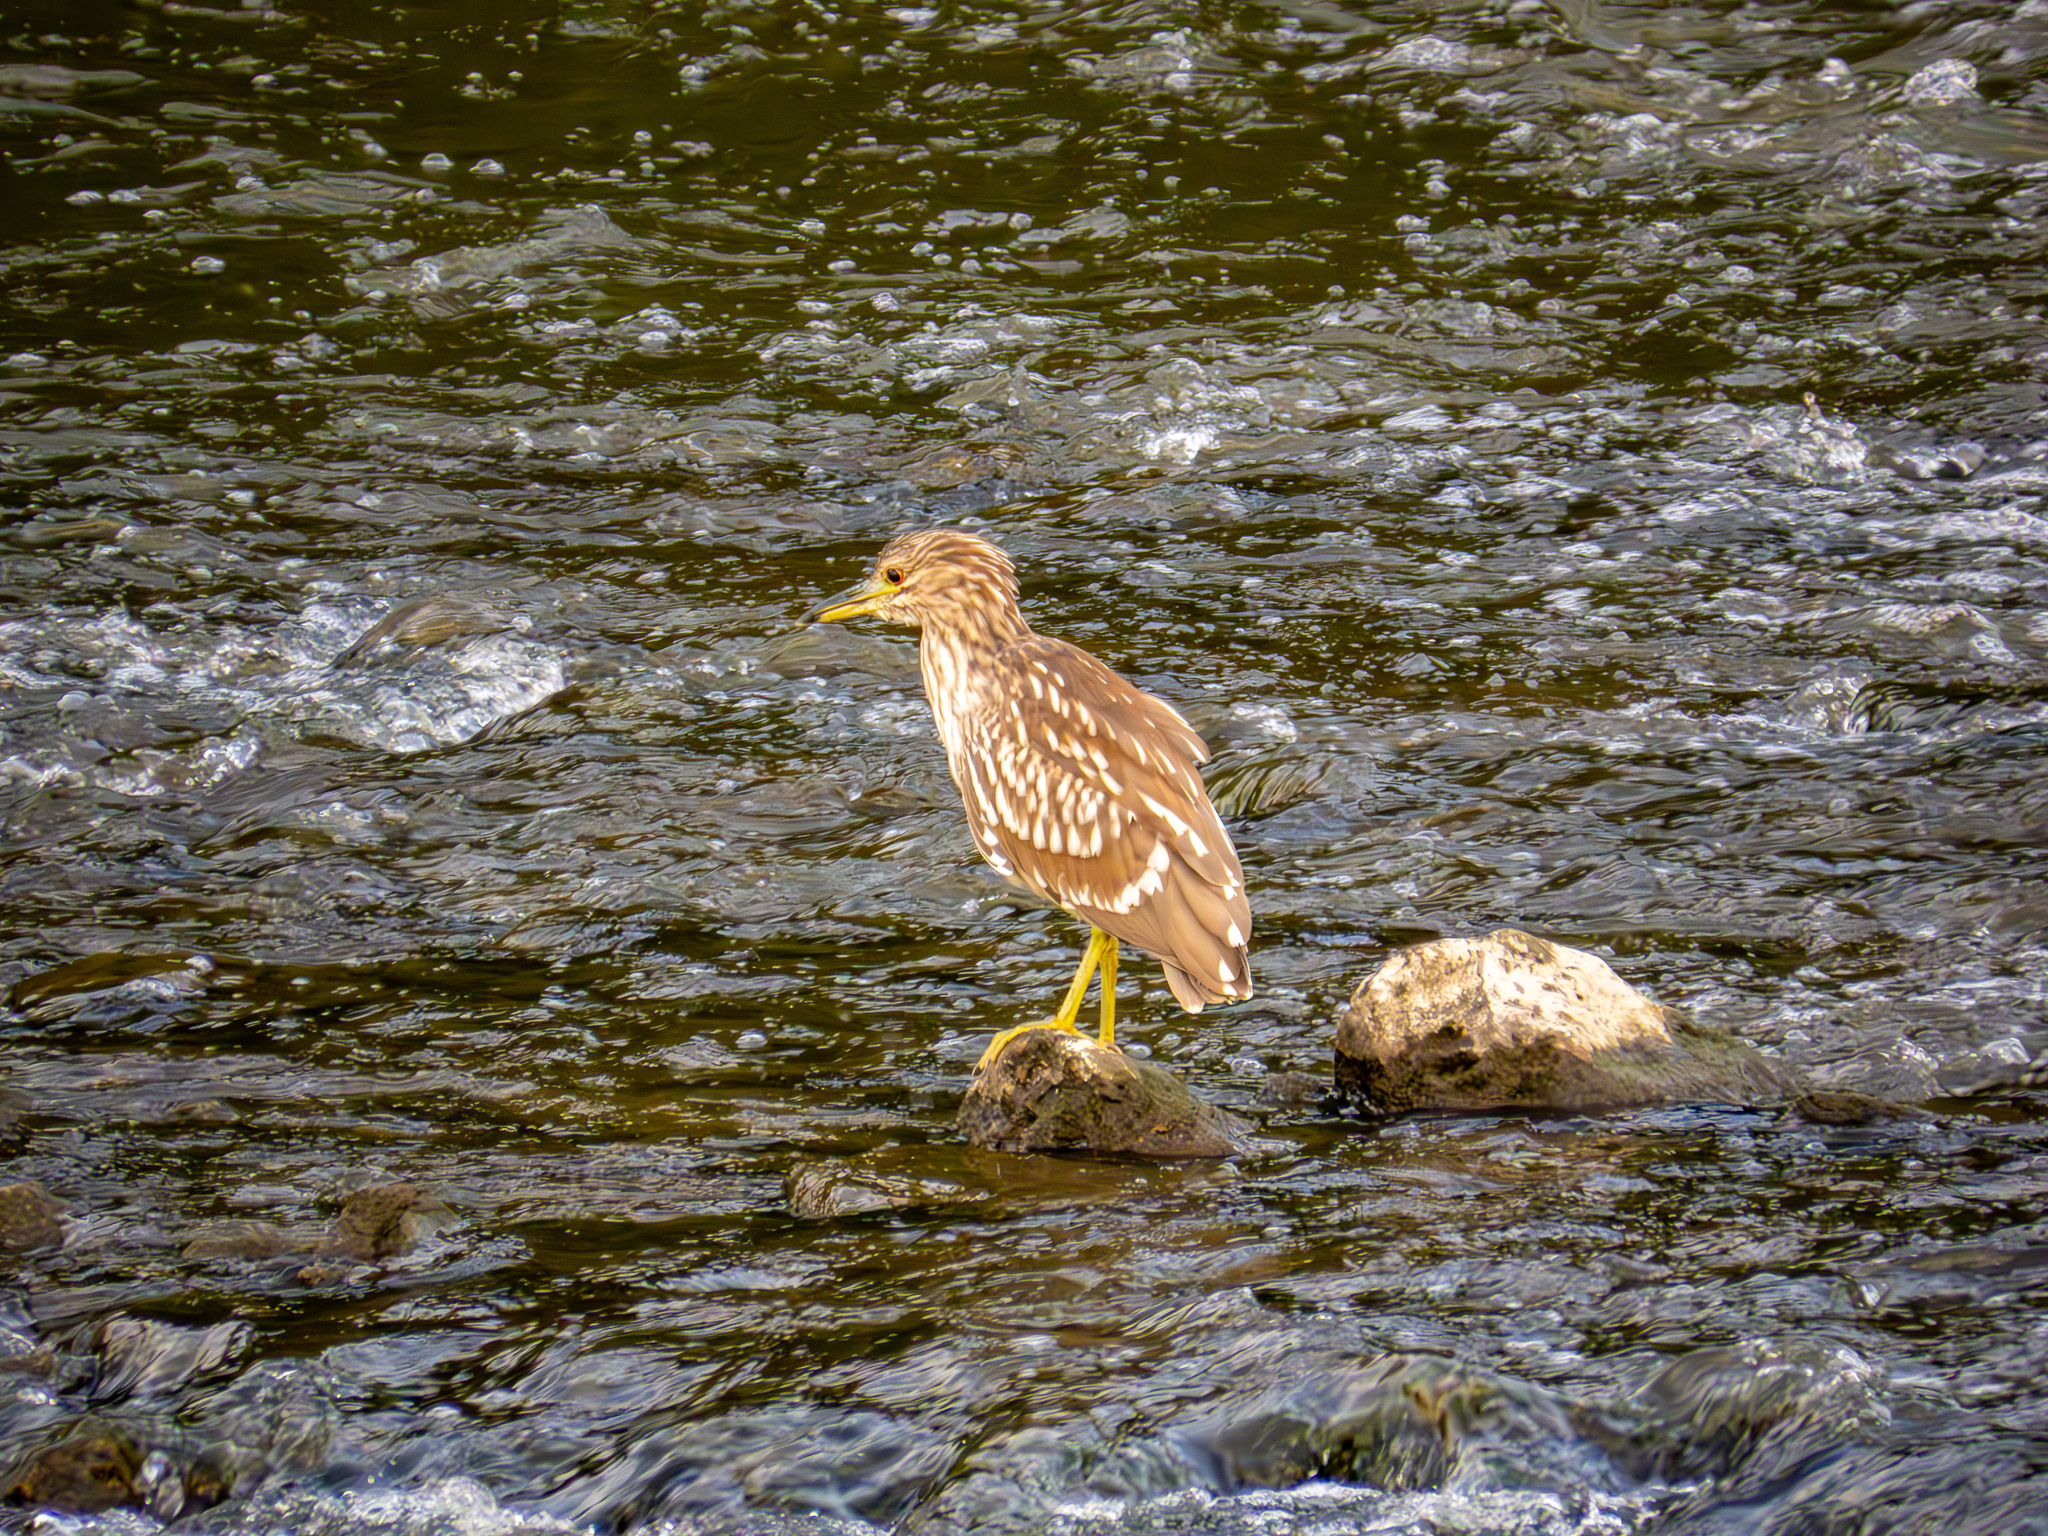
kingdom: Animalia
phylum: Chordata
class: Aves
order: Pelecaniformes
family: Ardeidae
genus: Nycticorax
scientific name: Nycticorax nycticorax
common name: Black-crowned night heron
